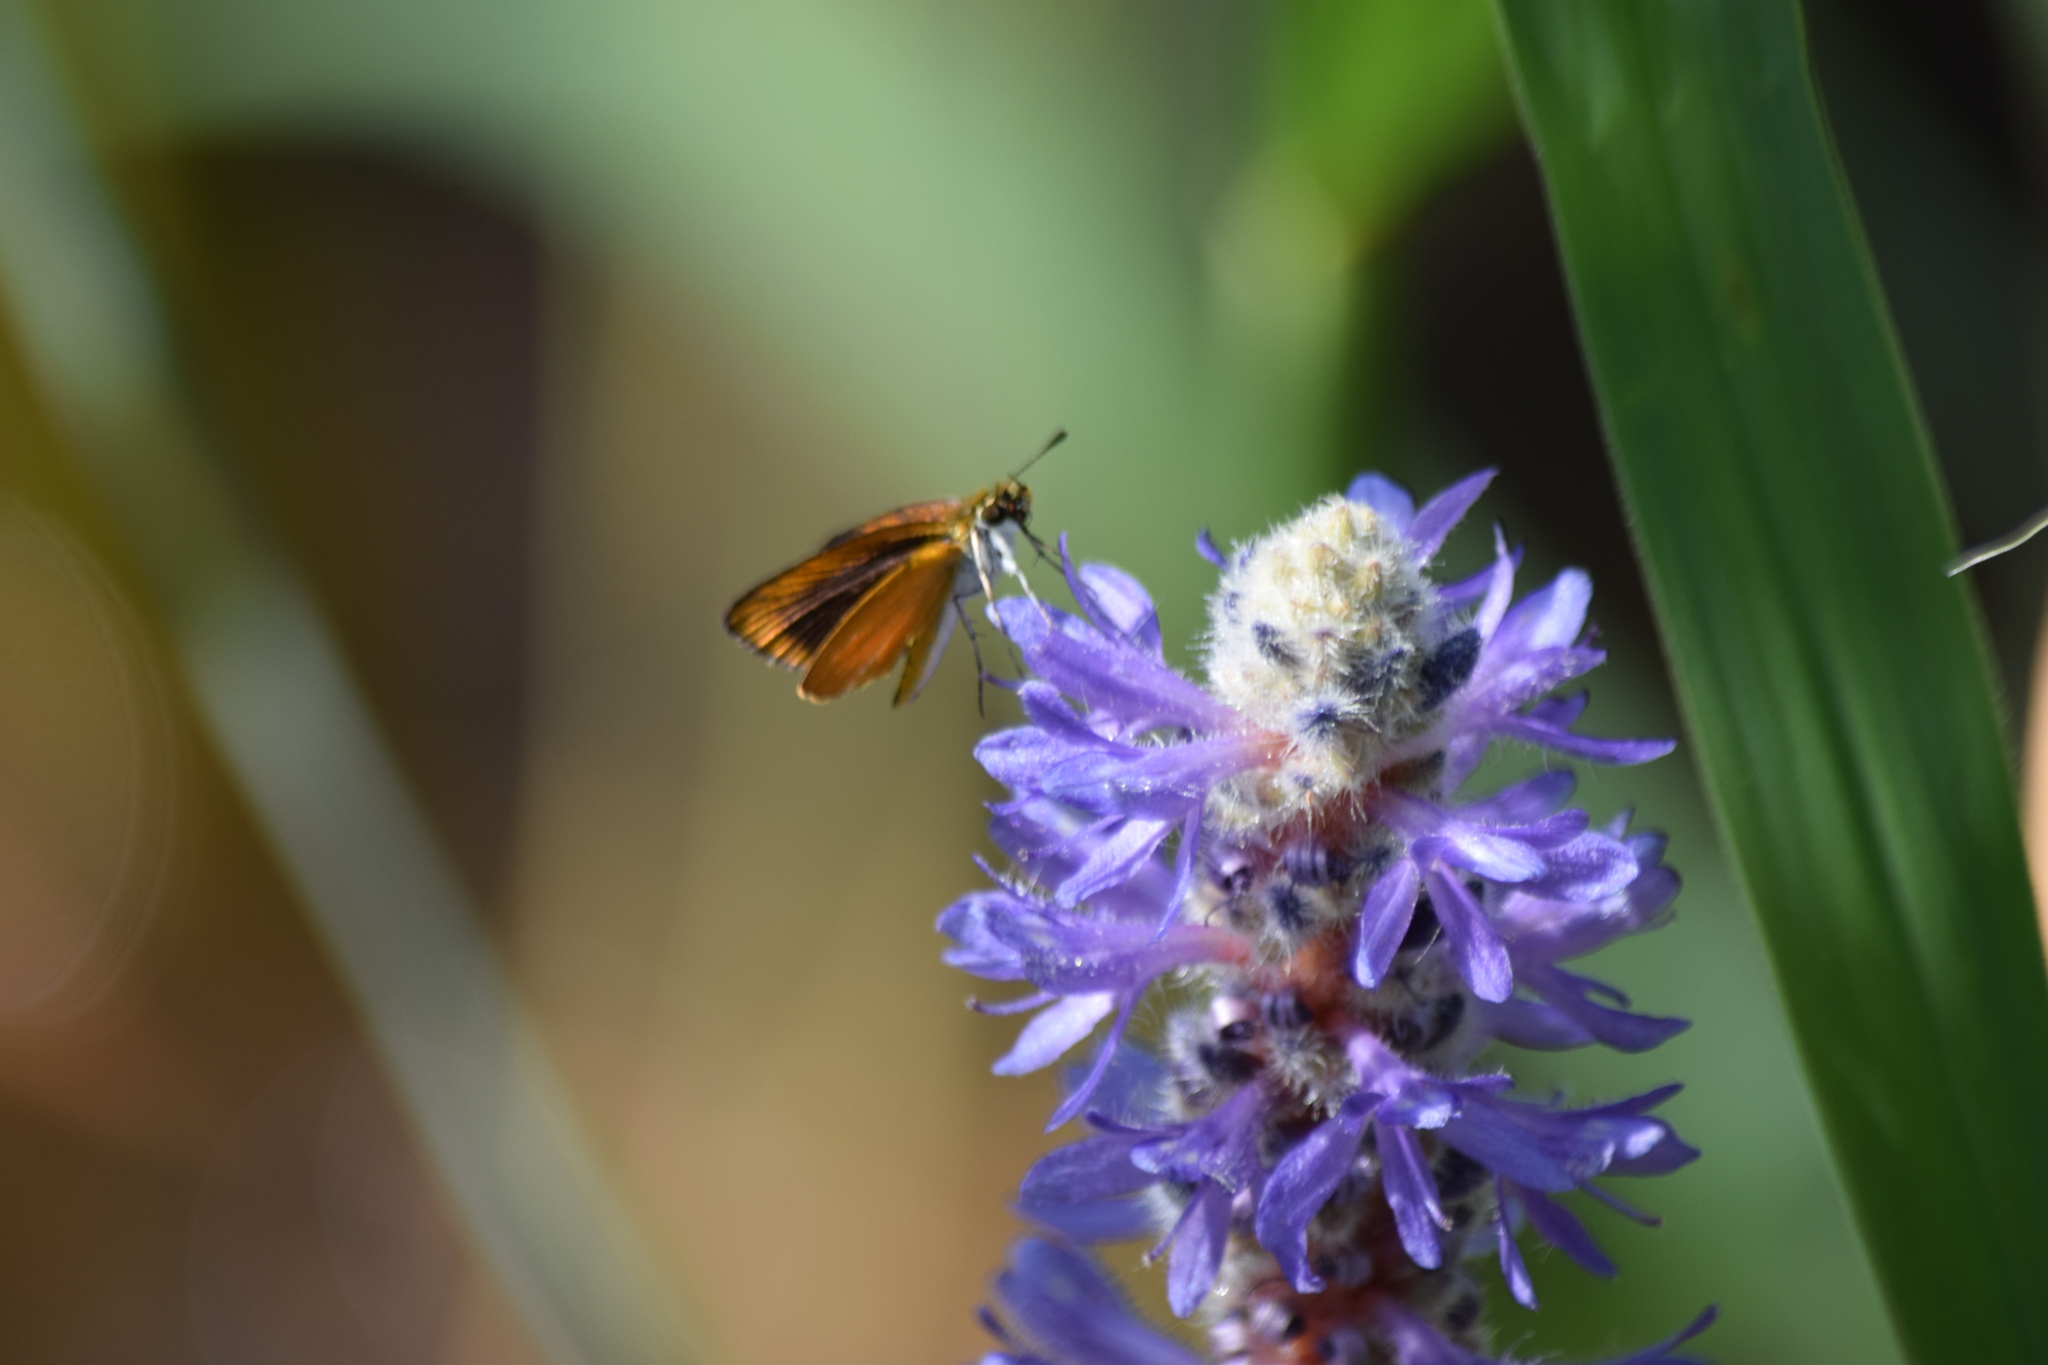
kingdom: Animalia
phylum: Arthropoda
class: Insecta
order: Lepidoptera
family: Hesperiidae
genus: Ancyloxypha
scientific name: Ancyloxypha numitor
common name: Least skipper
